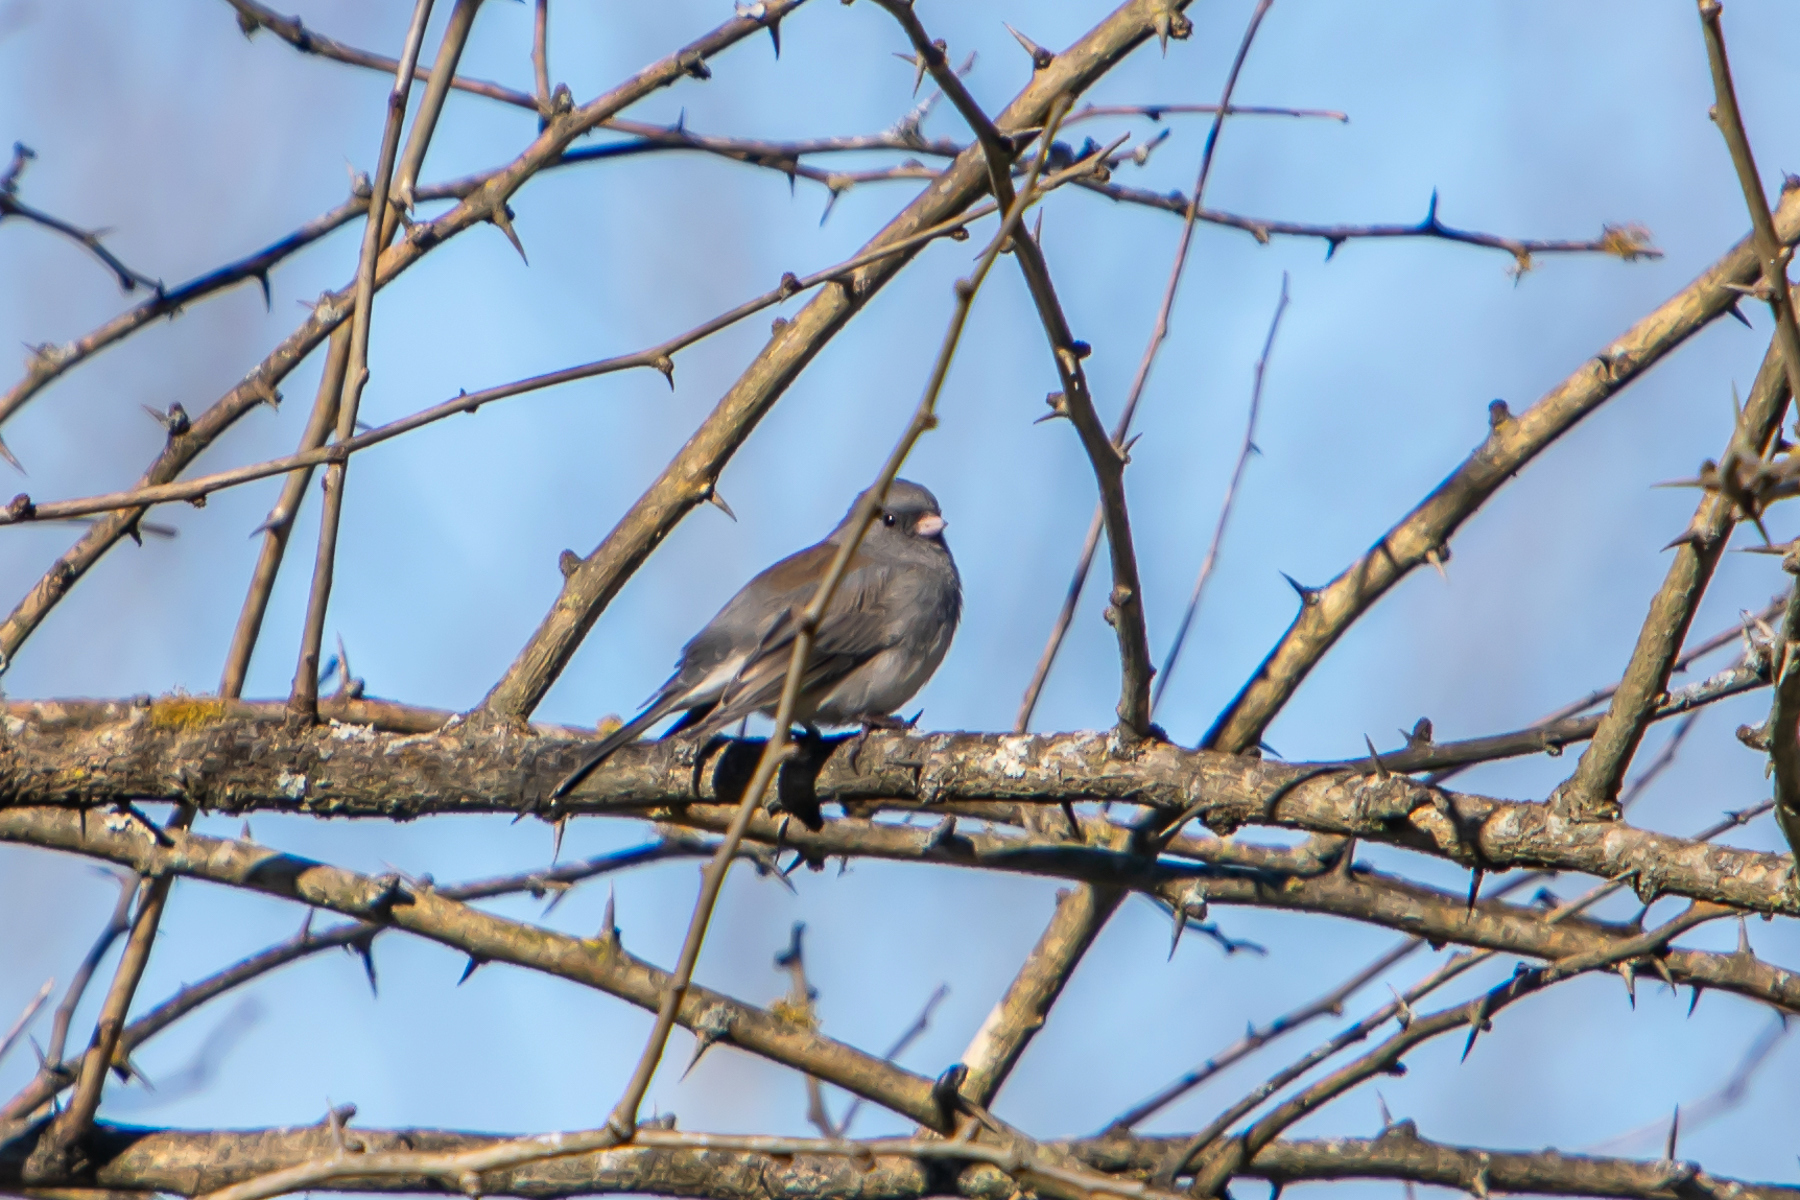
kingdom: Animalia
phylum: Chordata
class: Aves
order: Passeriformes
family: Passerellidae
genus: Junco
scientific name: Junco hyemalis
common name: Dark-eyed junco
